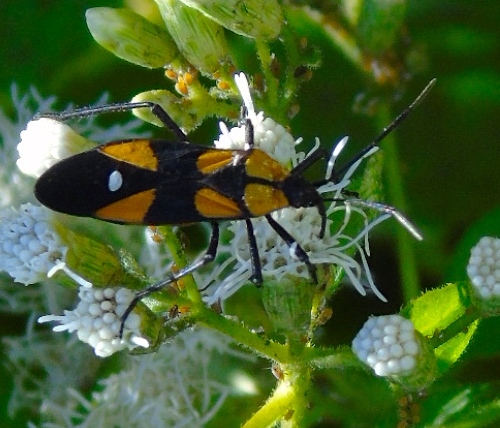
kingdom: Animalia
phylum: Arthropoda
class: Insecta
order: Hemiptera
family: Lygaeidae
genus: Oncopeltus
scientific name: Oncopeltus sexmaculatus
